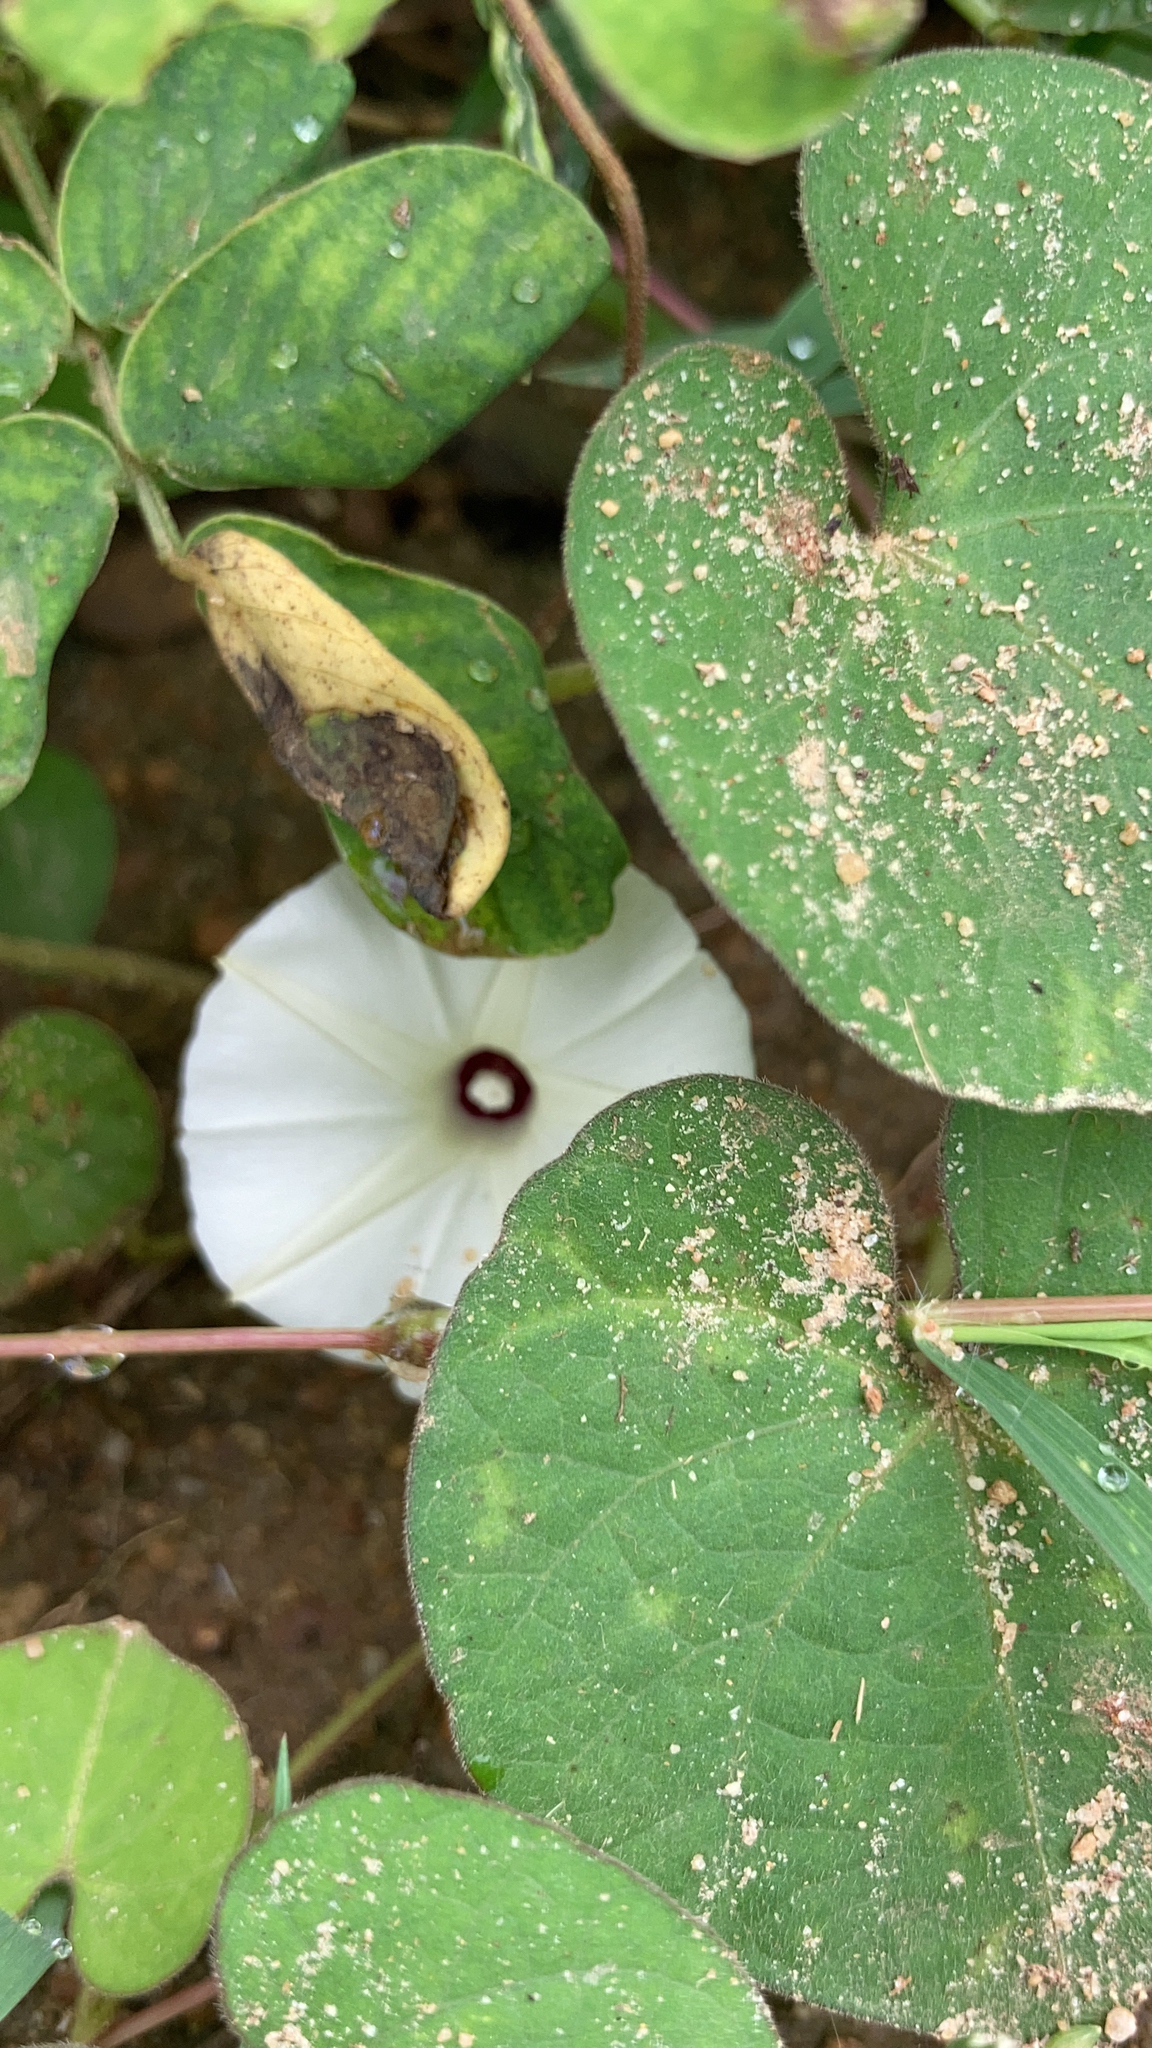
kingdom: Plantae
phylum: Tracheophyta
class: Magnoliopsida
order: Solanales
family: Convolvulaceae
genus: Ipomoea
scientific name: Ipomoea obscura
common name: Obscure morning-glory
